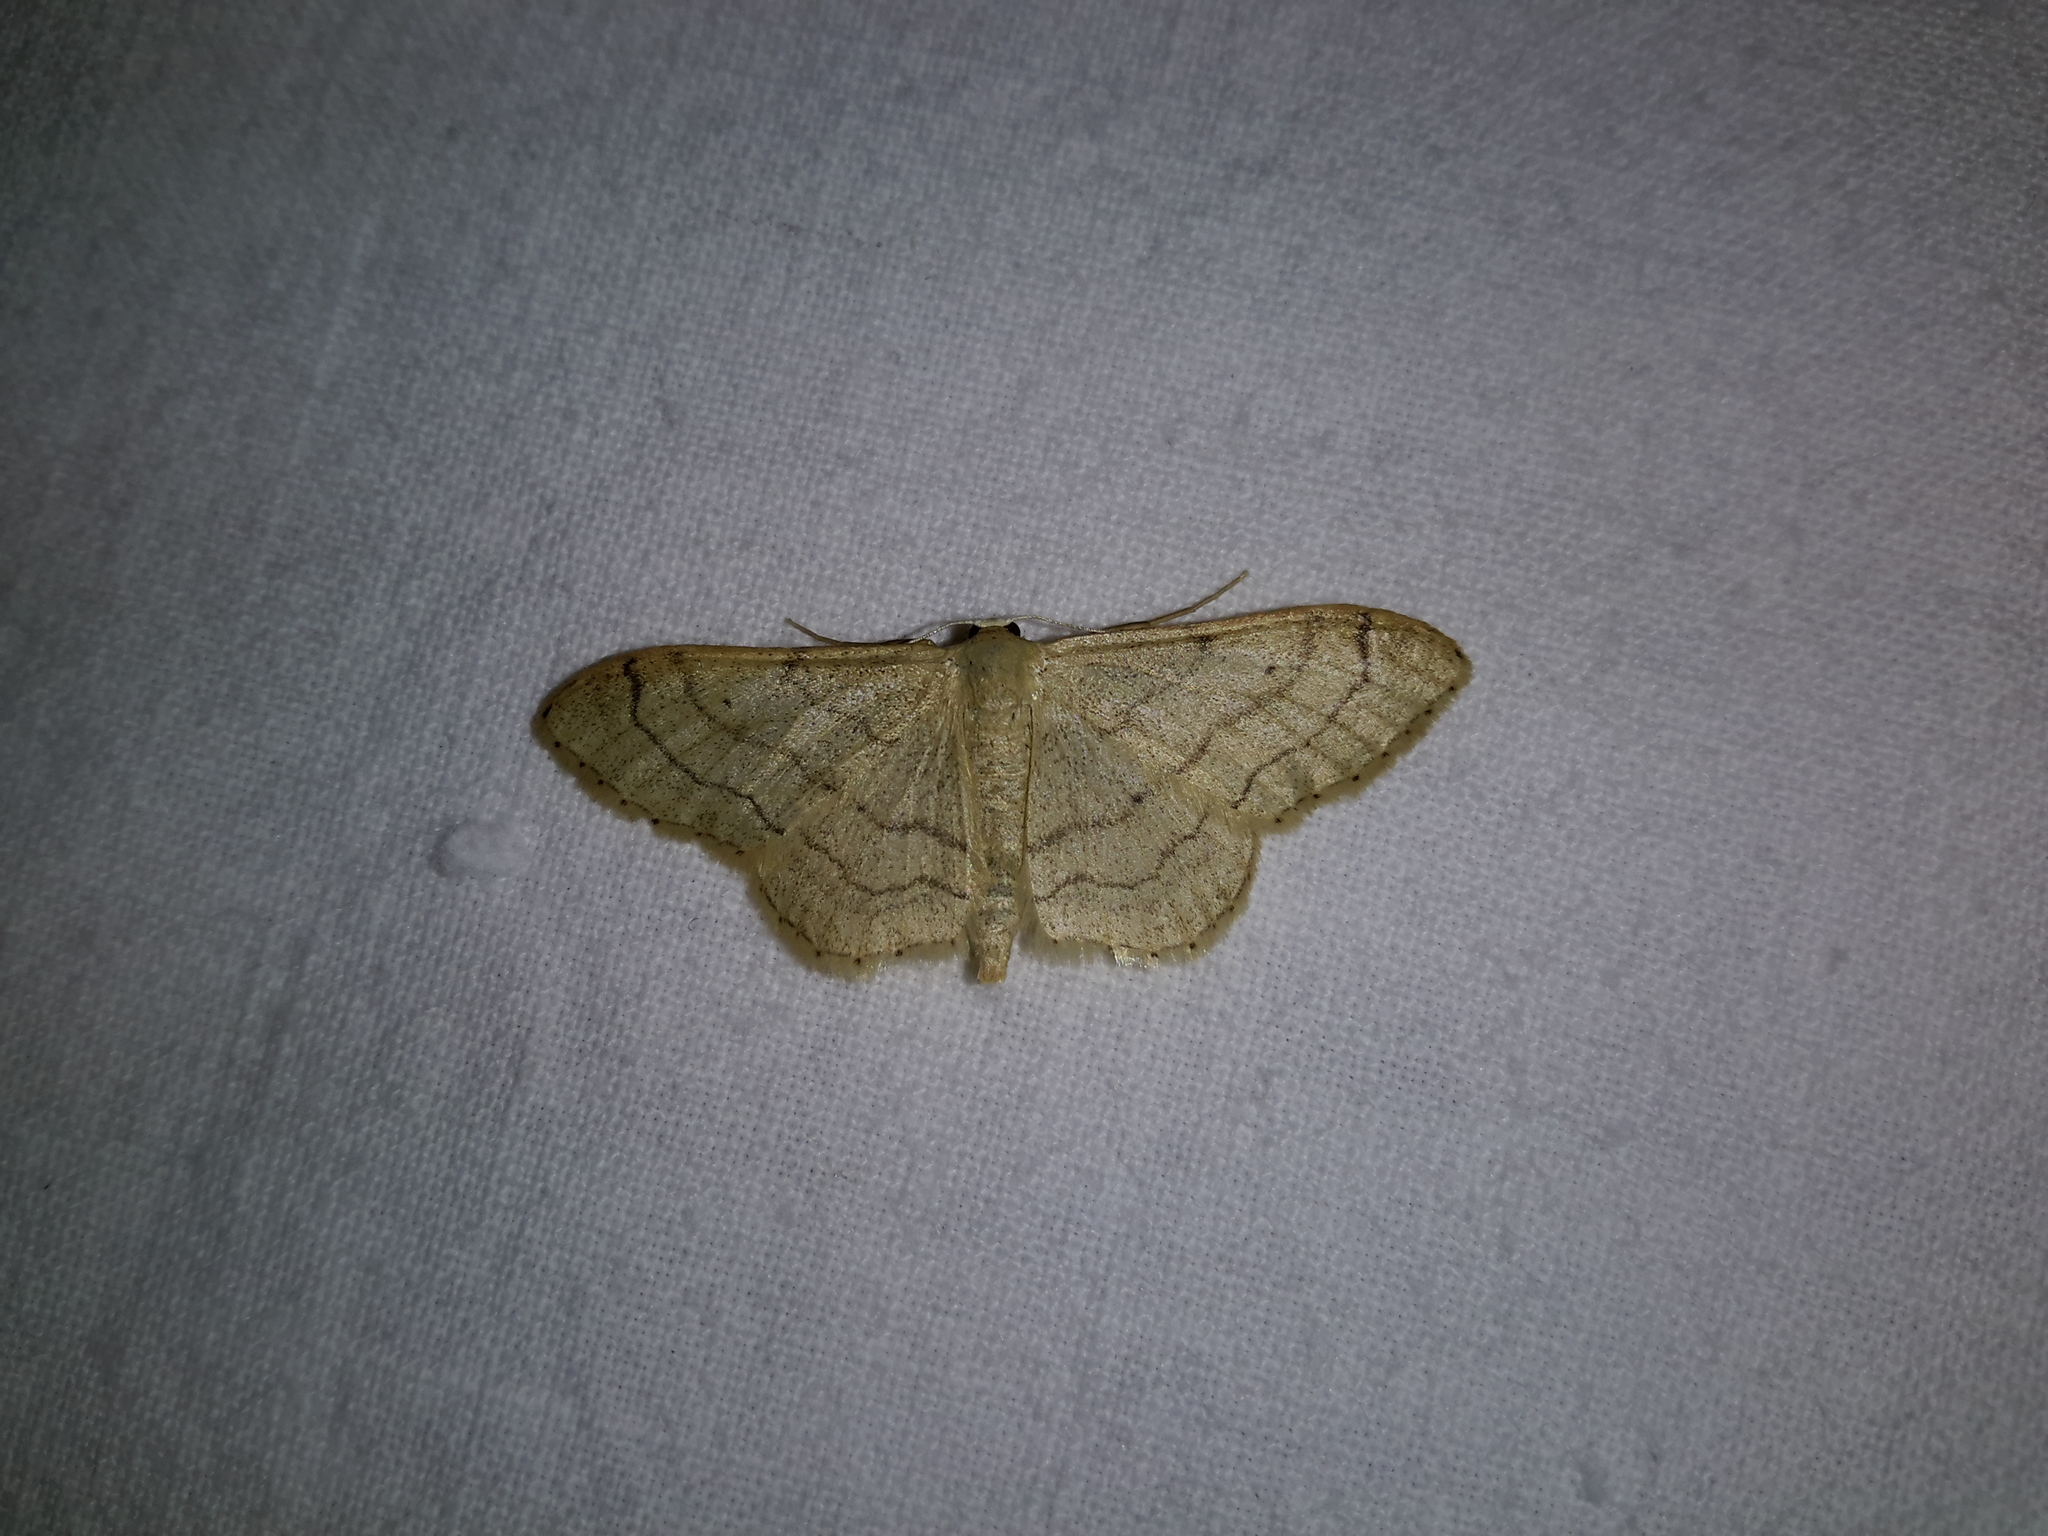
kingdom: Animalia
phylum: Arthropoda
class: Insecta
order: Lepidoptera
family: Geometridae
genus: Idaea
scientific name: Idaea aversata
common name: Riband wave
